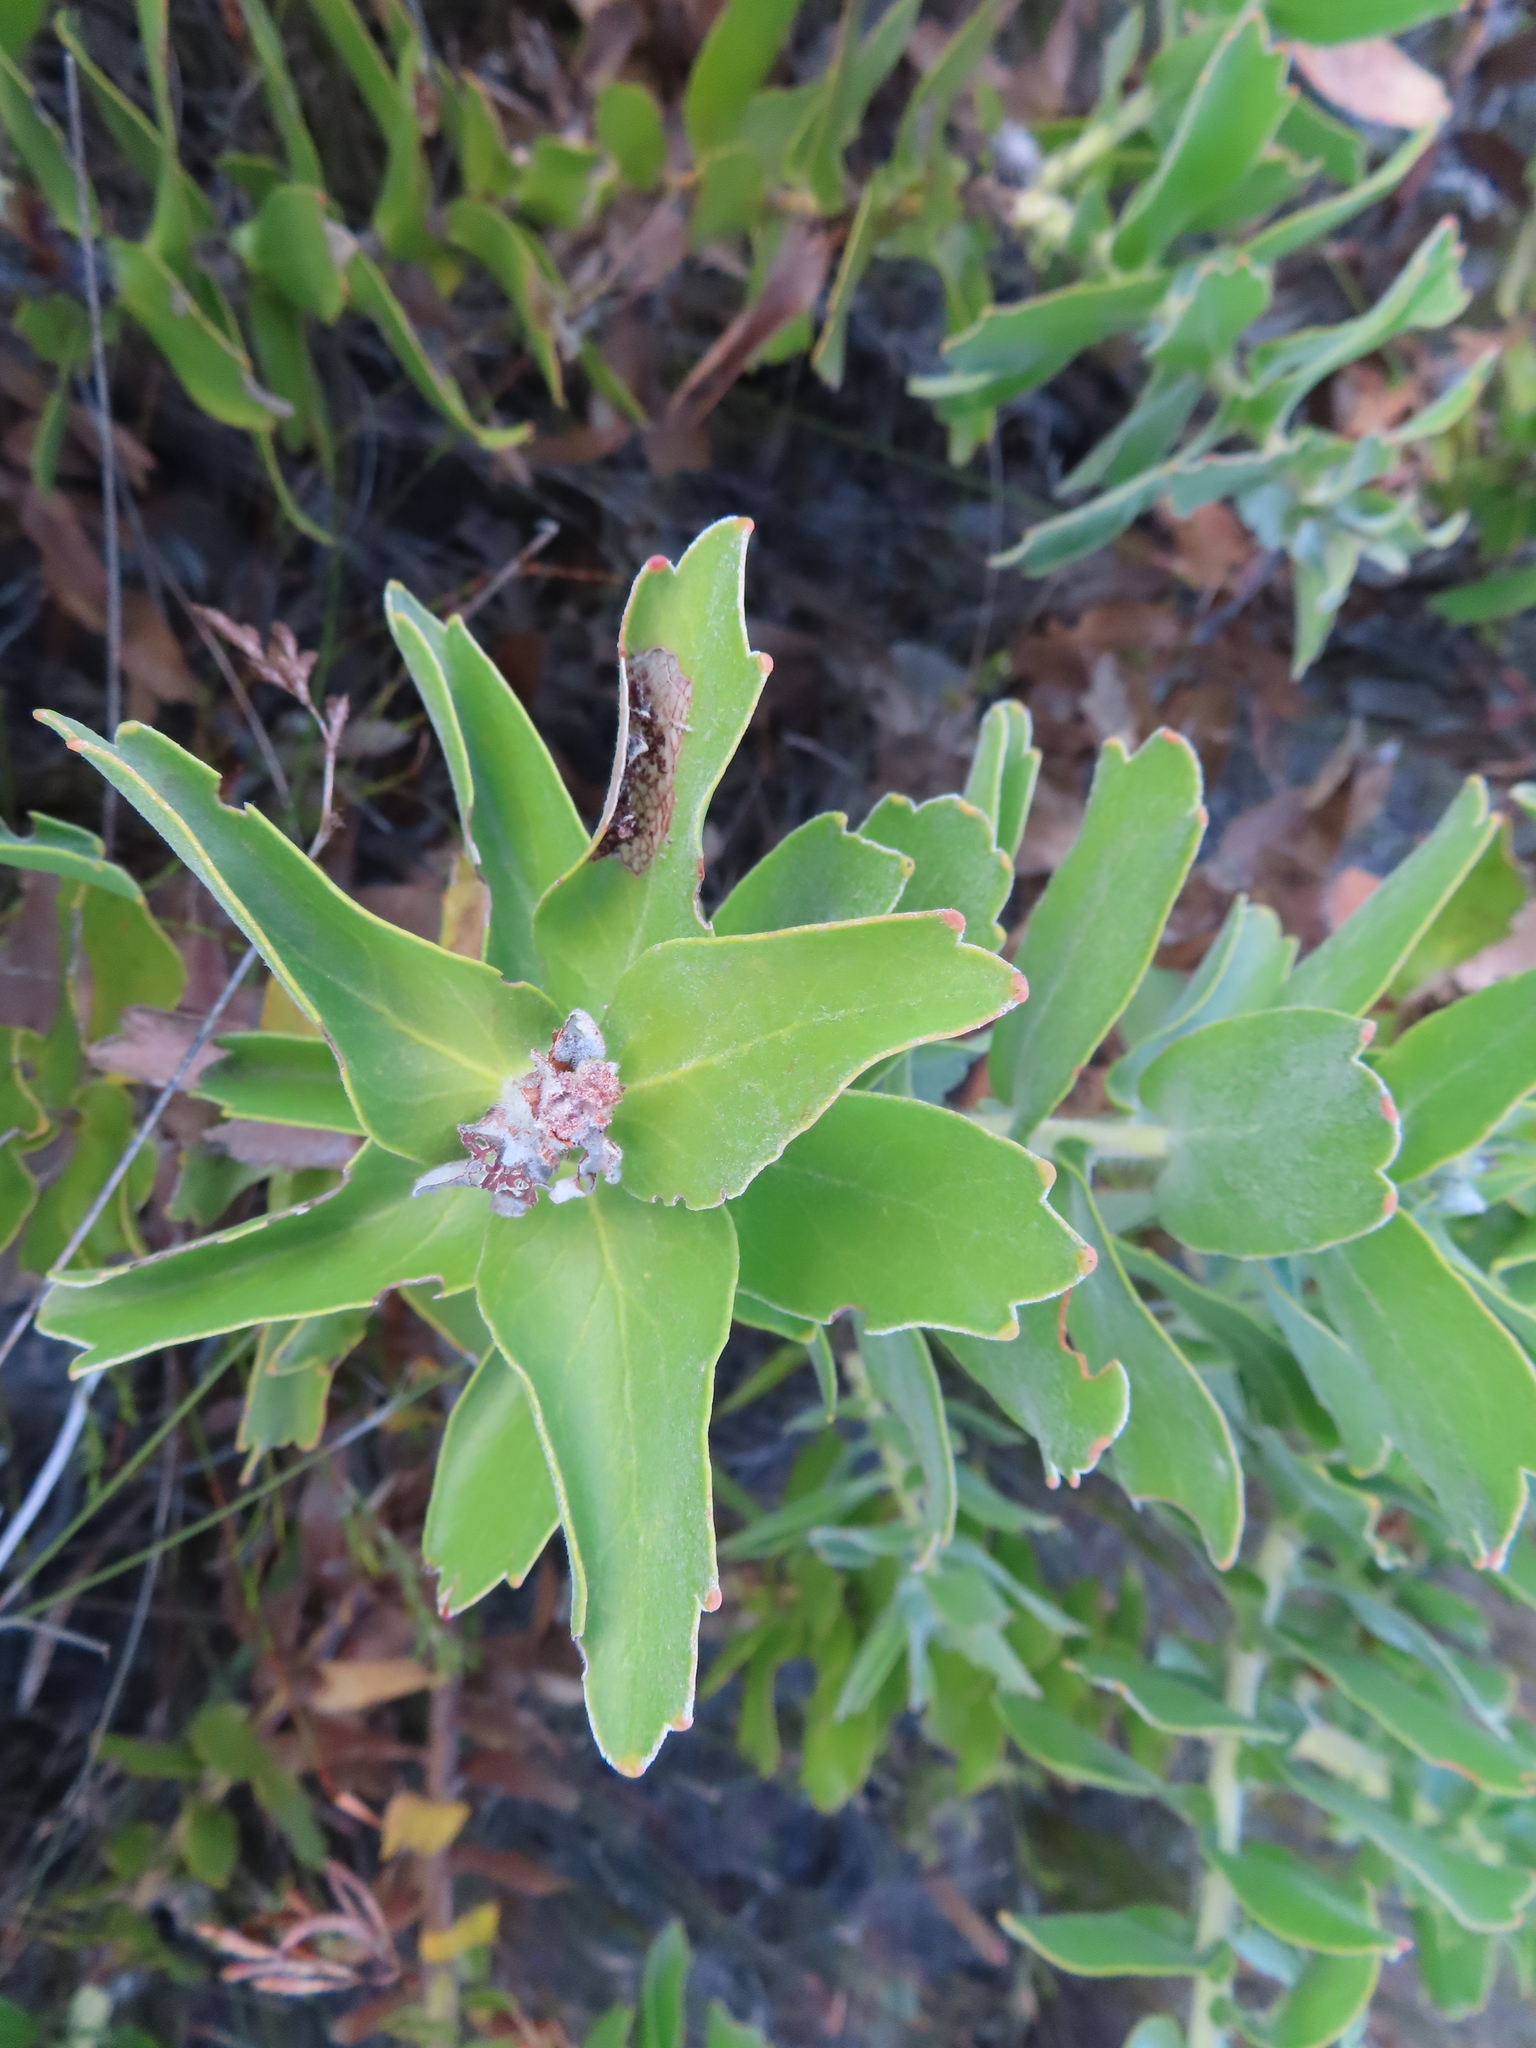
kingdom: Plantae
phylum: Tracheophyta
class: Magnoliopsida
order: Proteales
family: Proteaceae
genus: Leucospermum
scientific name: Leucospermum cordifolium
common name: Red pincushion-protea
